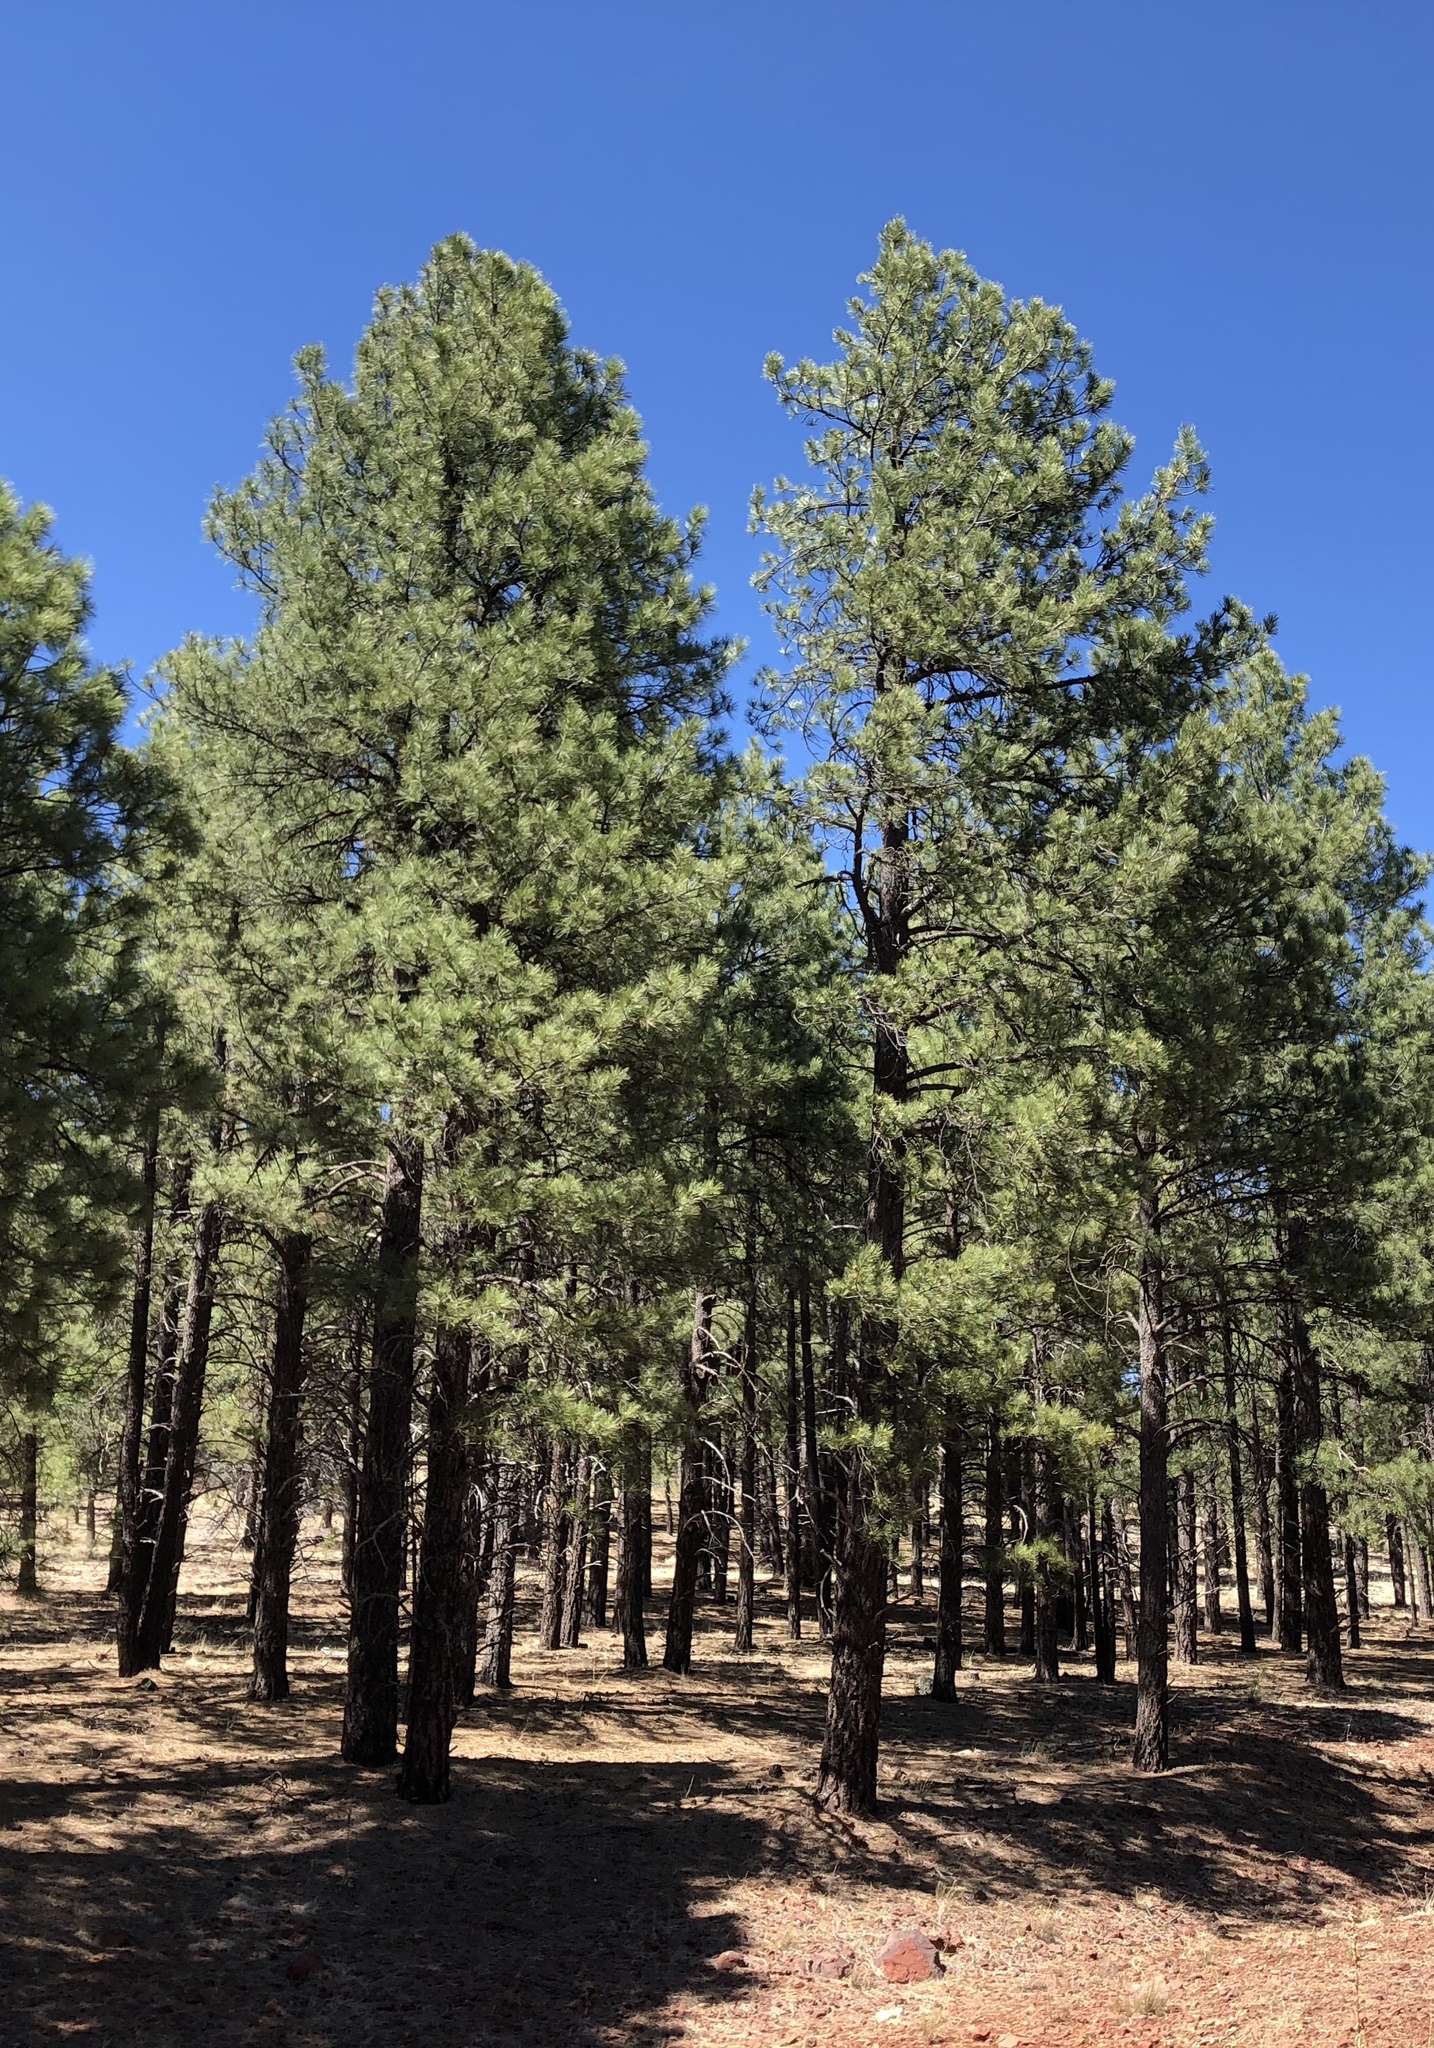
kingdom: Plantae
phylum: Tracheophyta
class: Pinopsida
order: Pinales
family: Pinaceae
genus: Pinus
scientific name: Pinus ponderosa
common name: Western yellow-pine
